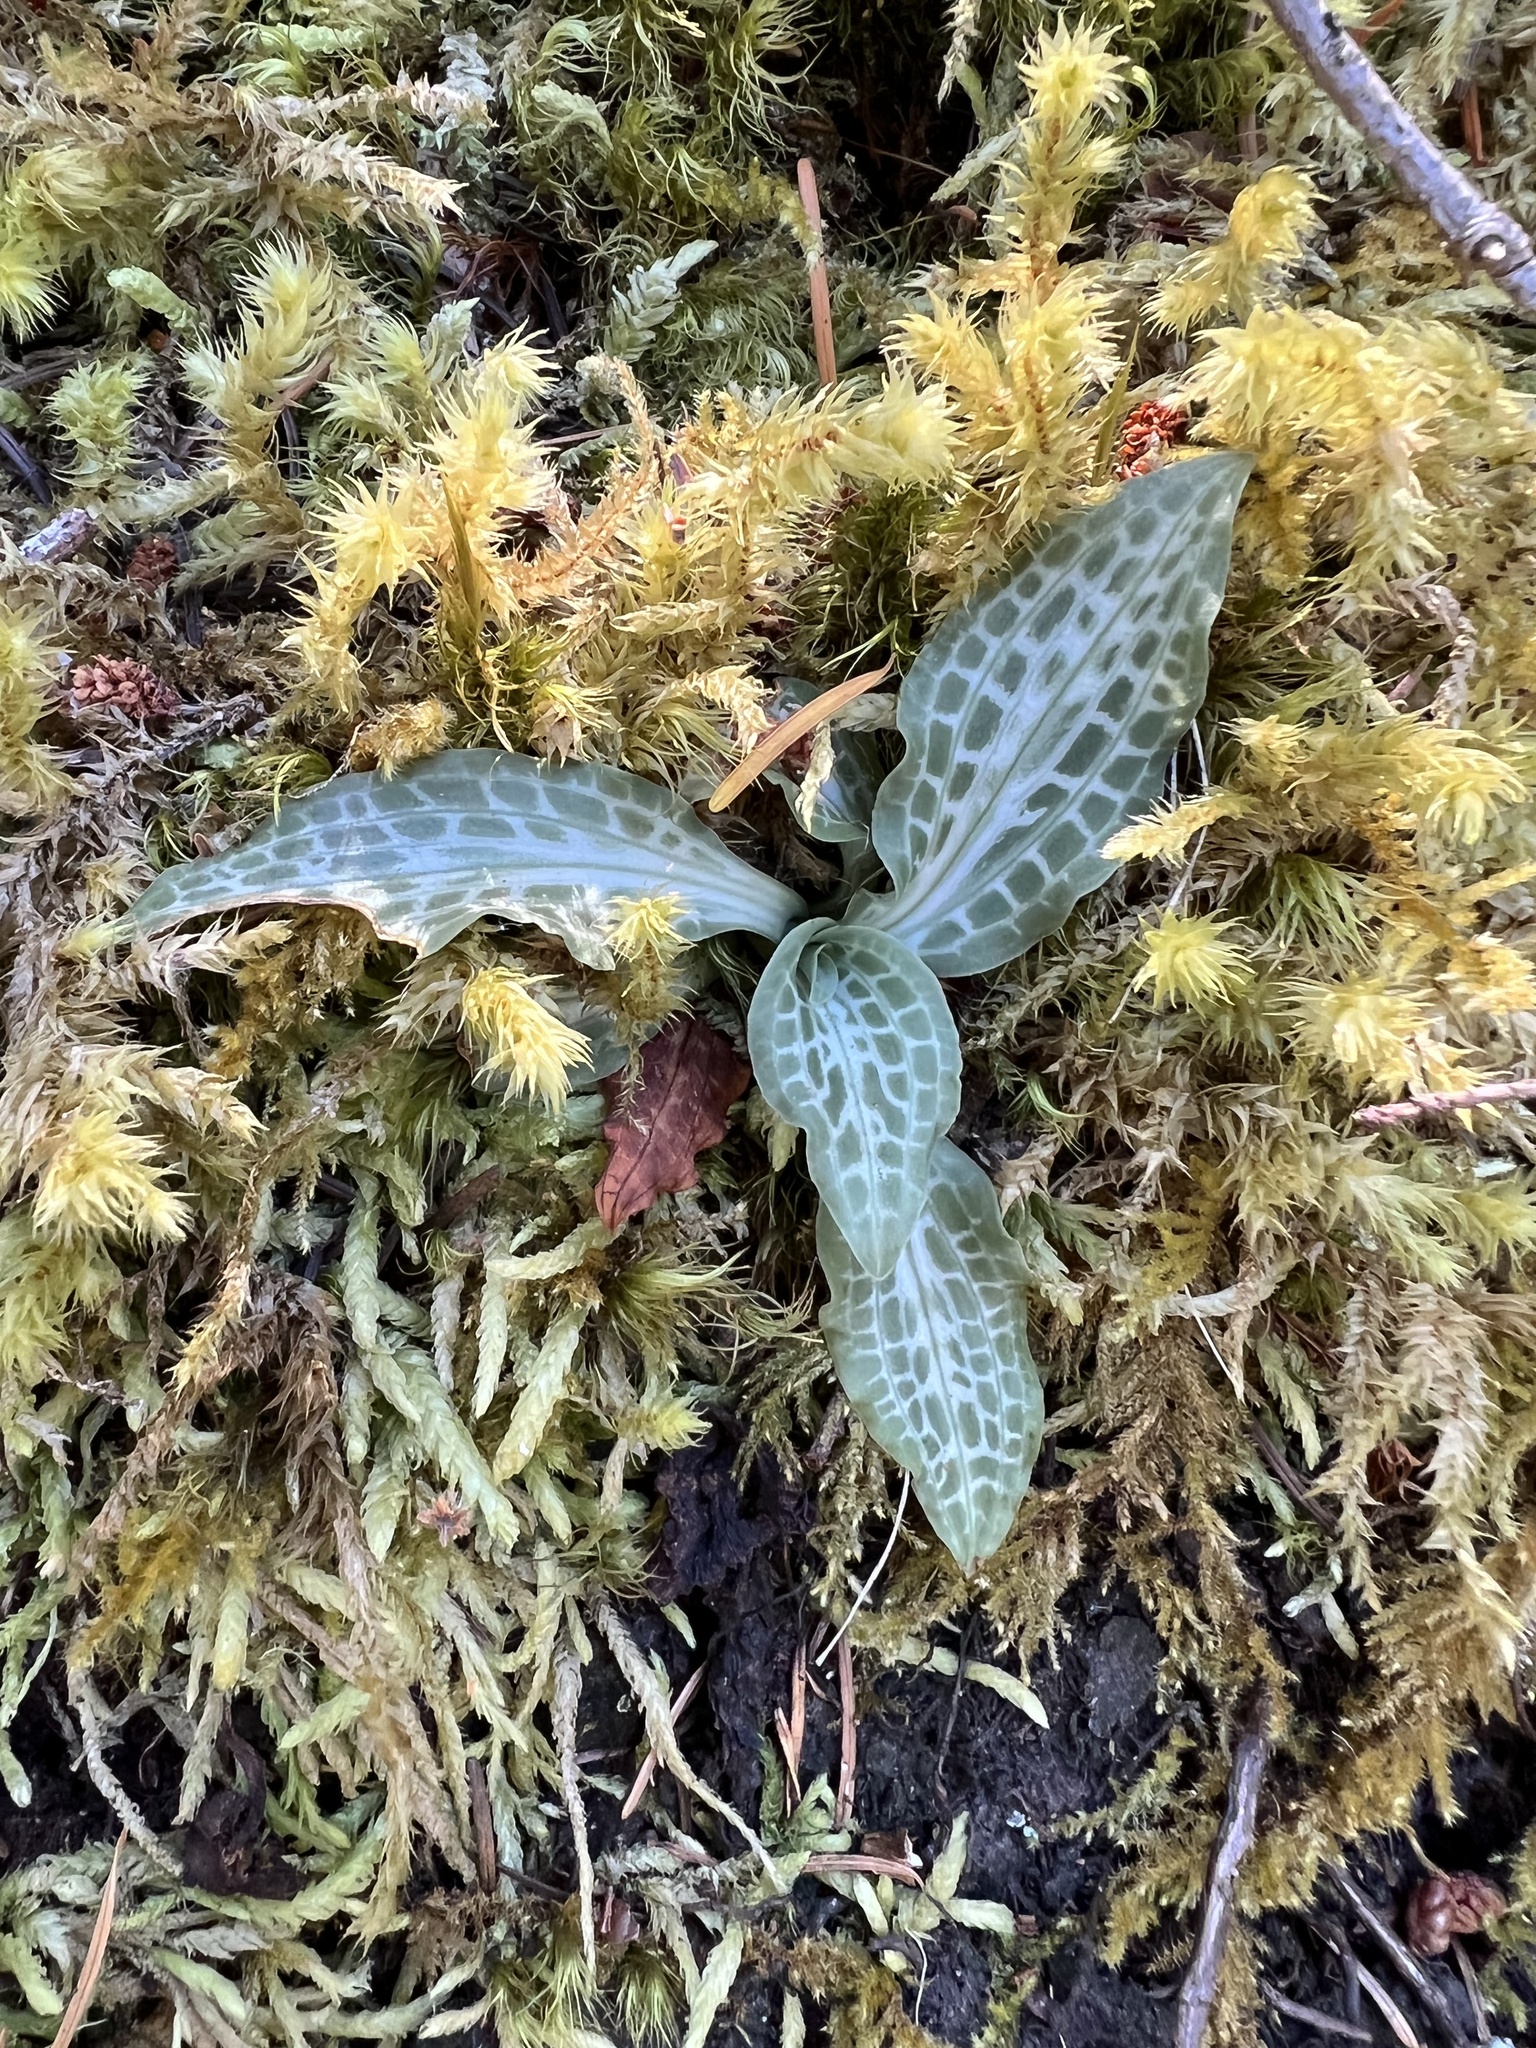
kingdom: Plantae
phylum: Tracheophyta
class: Liliopsida
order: Asparagales
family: Orchidaceae
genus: Goodyera
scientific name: Goodyera oblongifolia
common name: Giant rattlesnake-plantain
